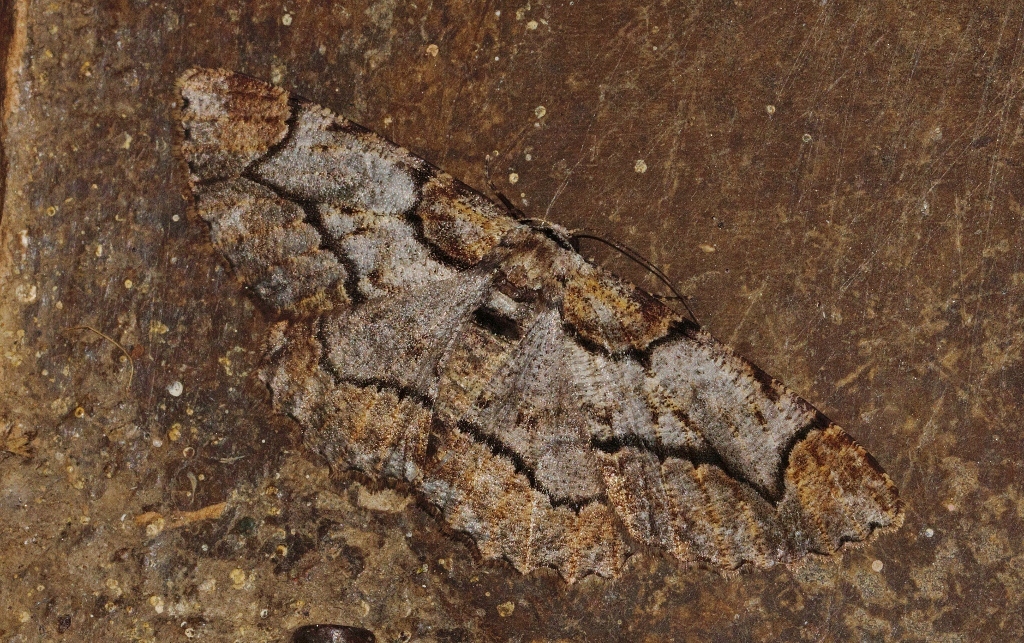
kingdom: Animalia
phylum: Arthropoda
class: Insecta
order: Lepidoptera
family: Geometridae
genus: Colocleora
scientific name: Colocleora divisaria
